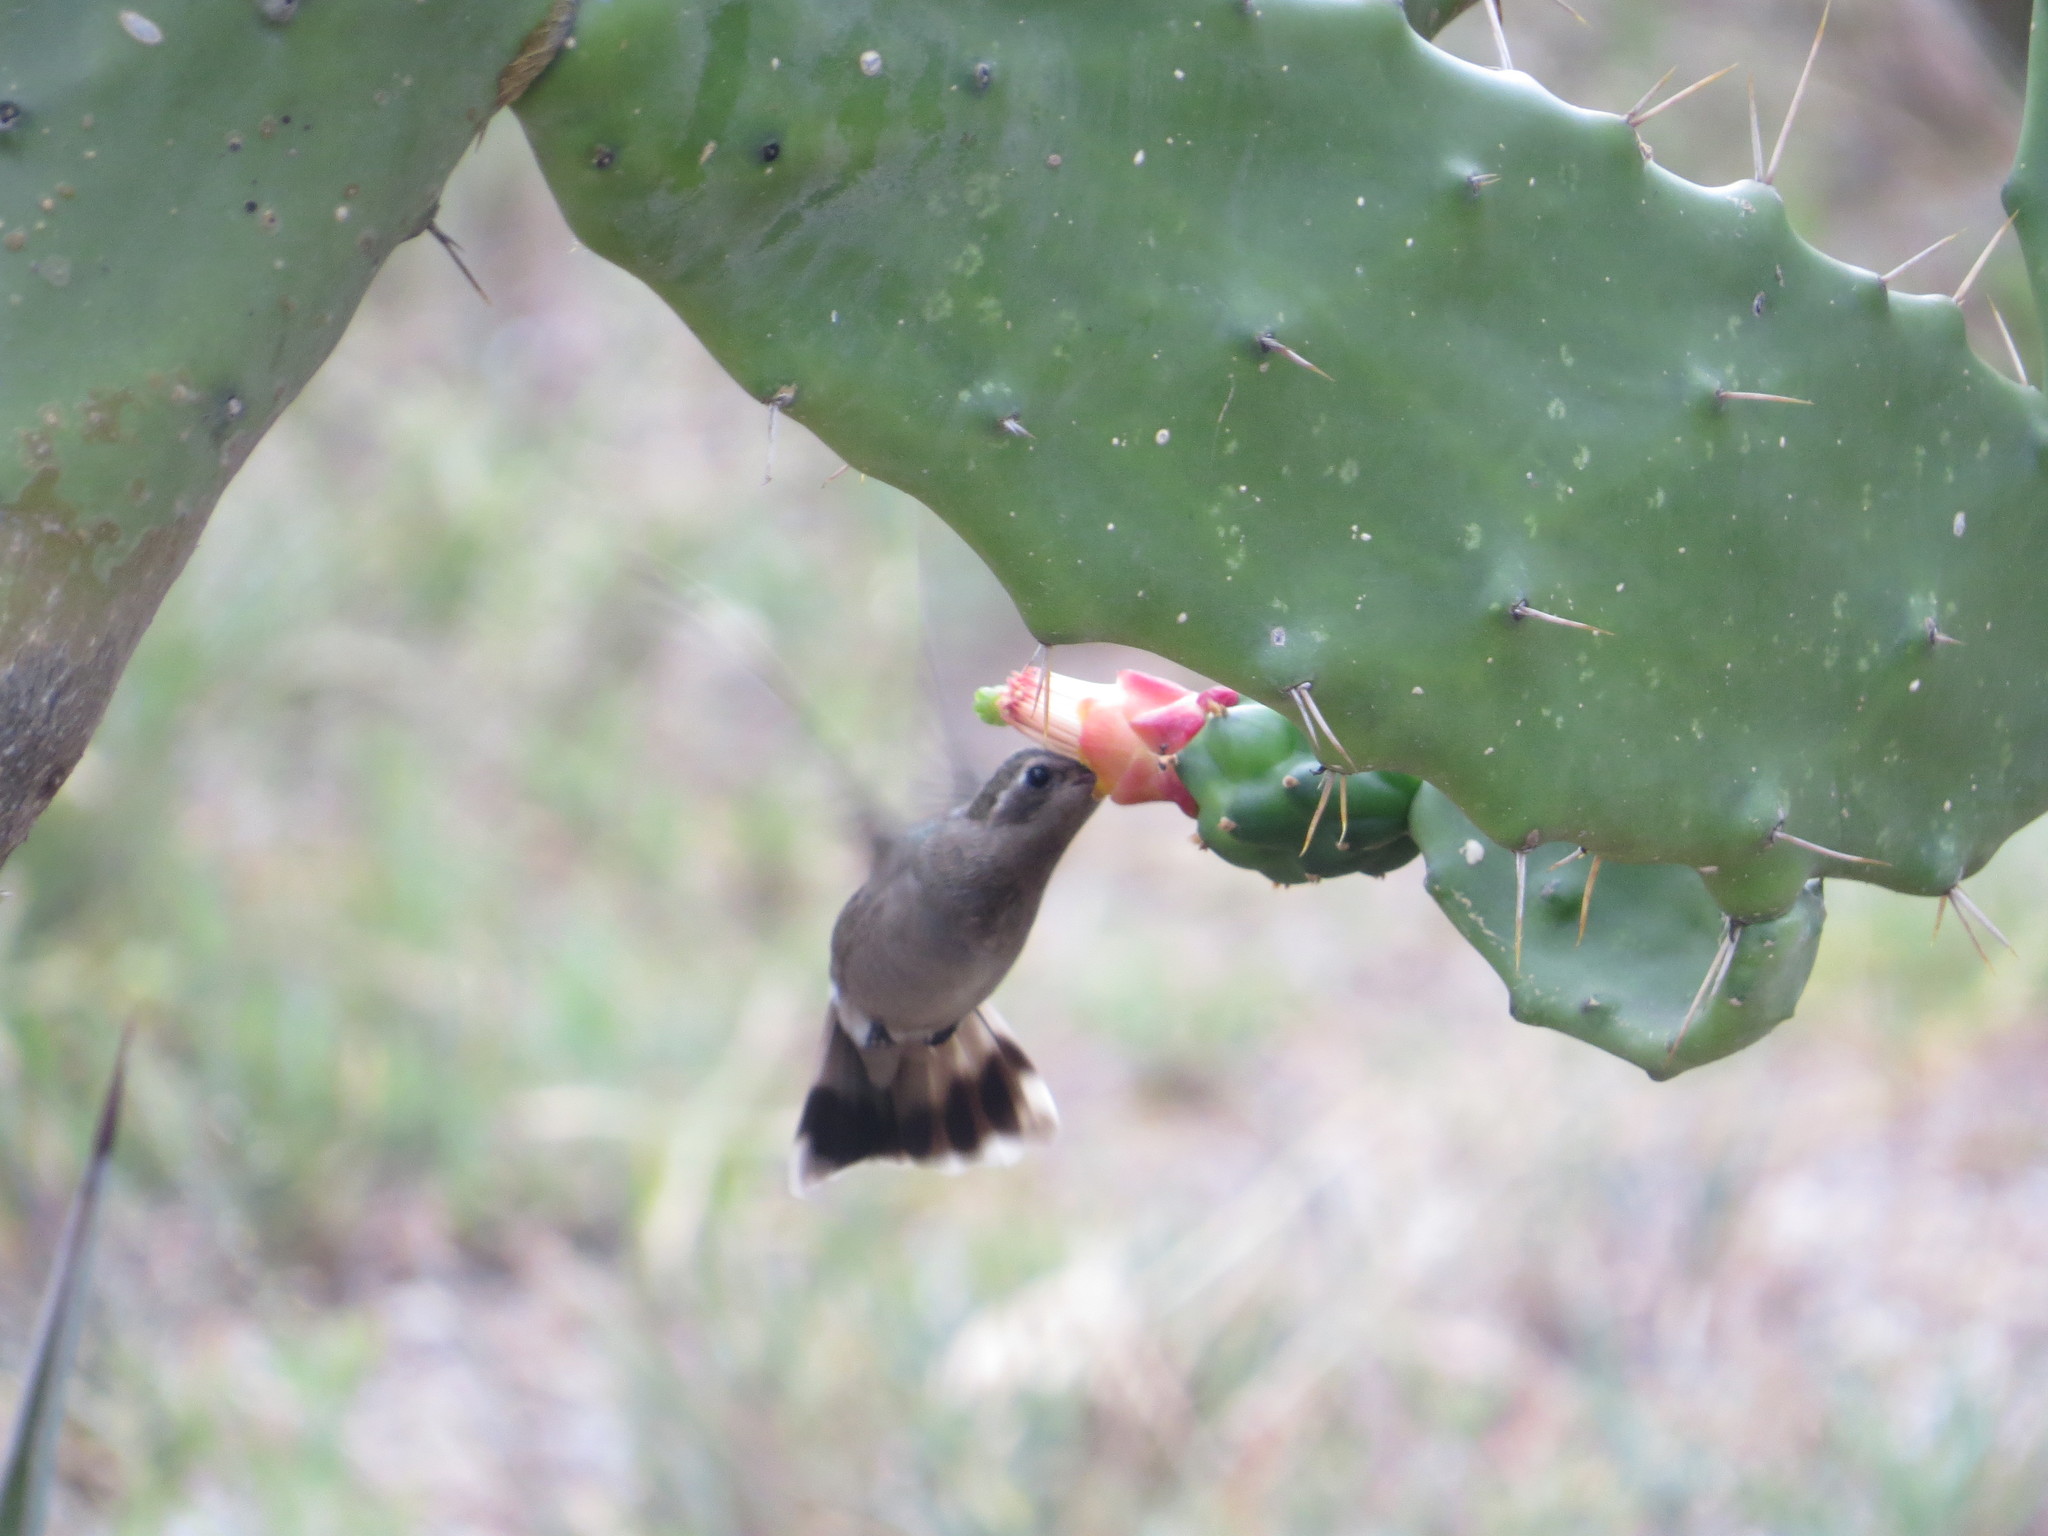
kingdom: Animalia
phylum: Chordata
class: Aves
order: Apodiformes
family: Trochilidae
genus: Phaeoptila
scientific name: Phaeoptila sordida
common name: Dusky hummingbird
